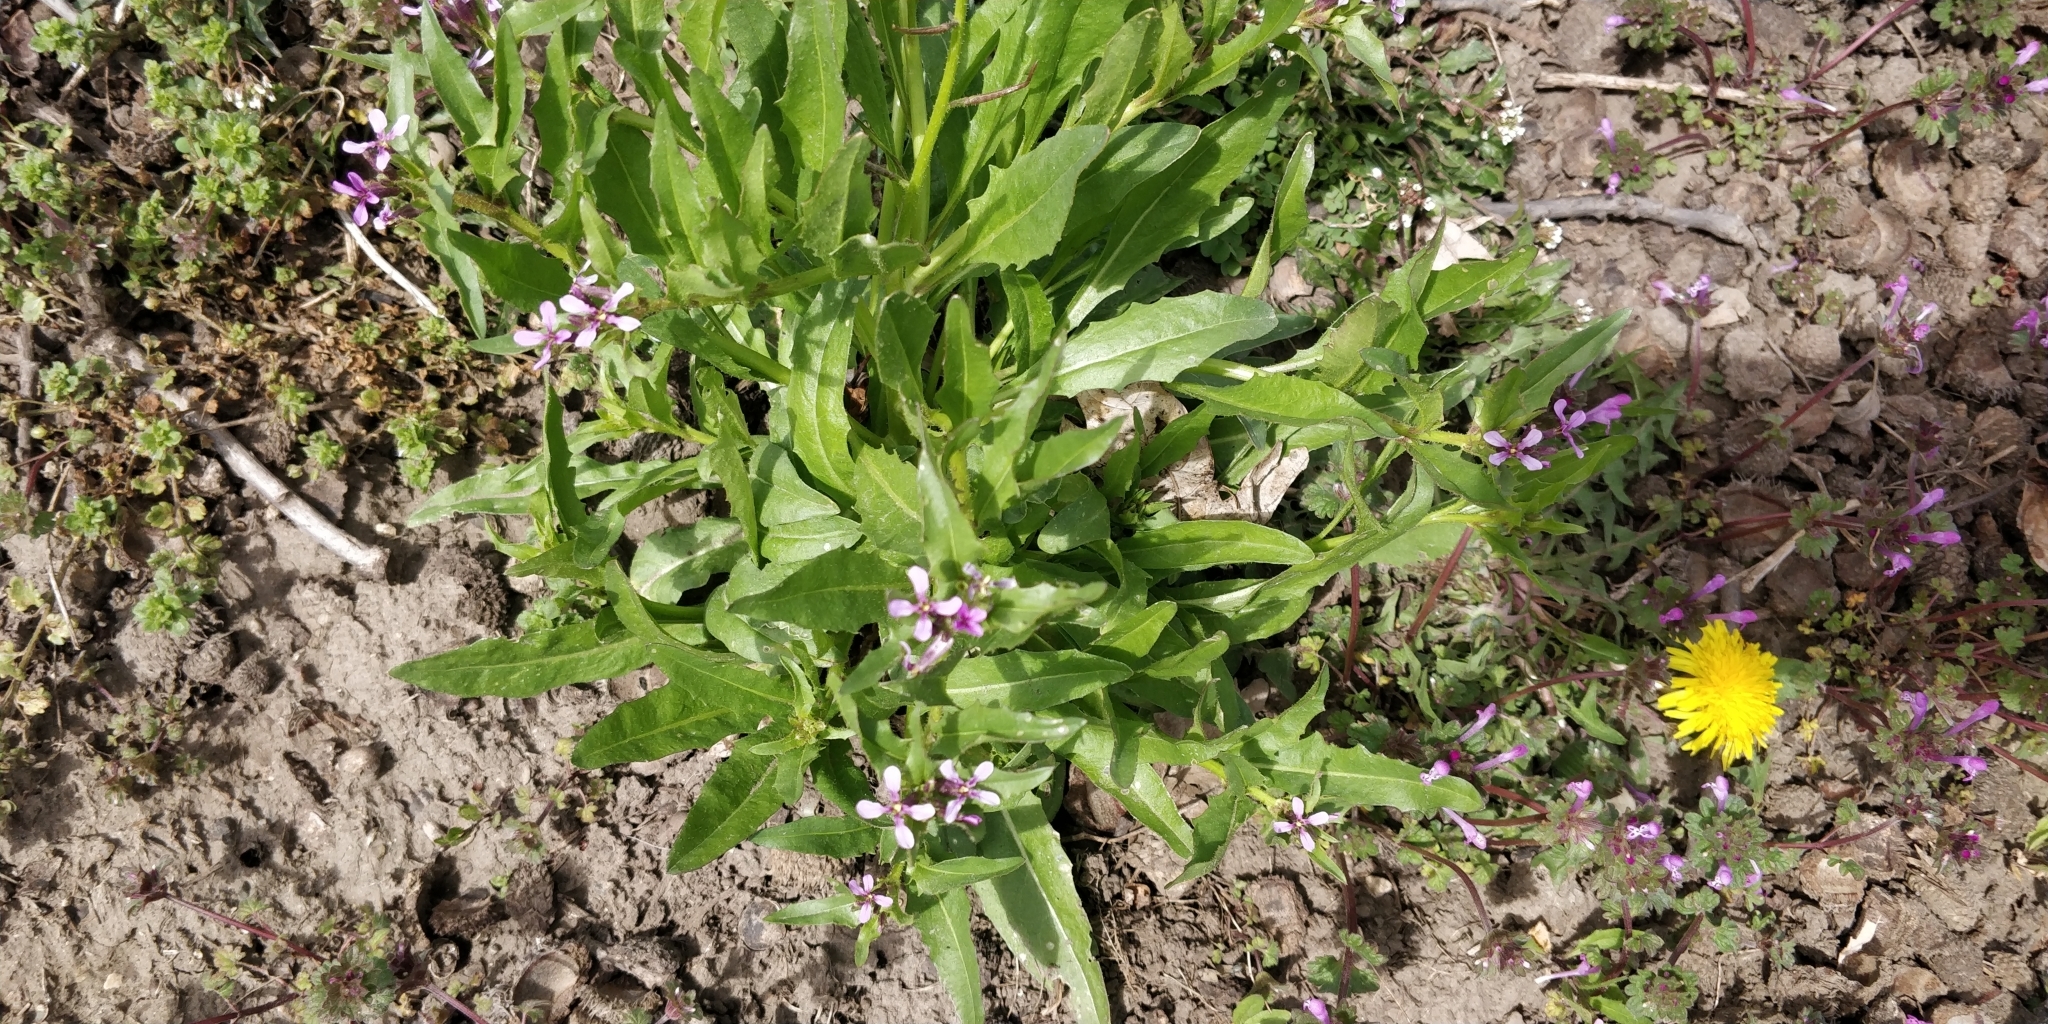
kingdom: Plantae
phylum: Tracheophyta
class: Magnoliopsida
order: Brassicales
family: Brassicaceae
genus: Chorispora
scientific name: Chorispora tenella
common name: Crossflower
